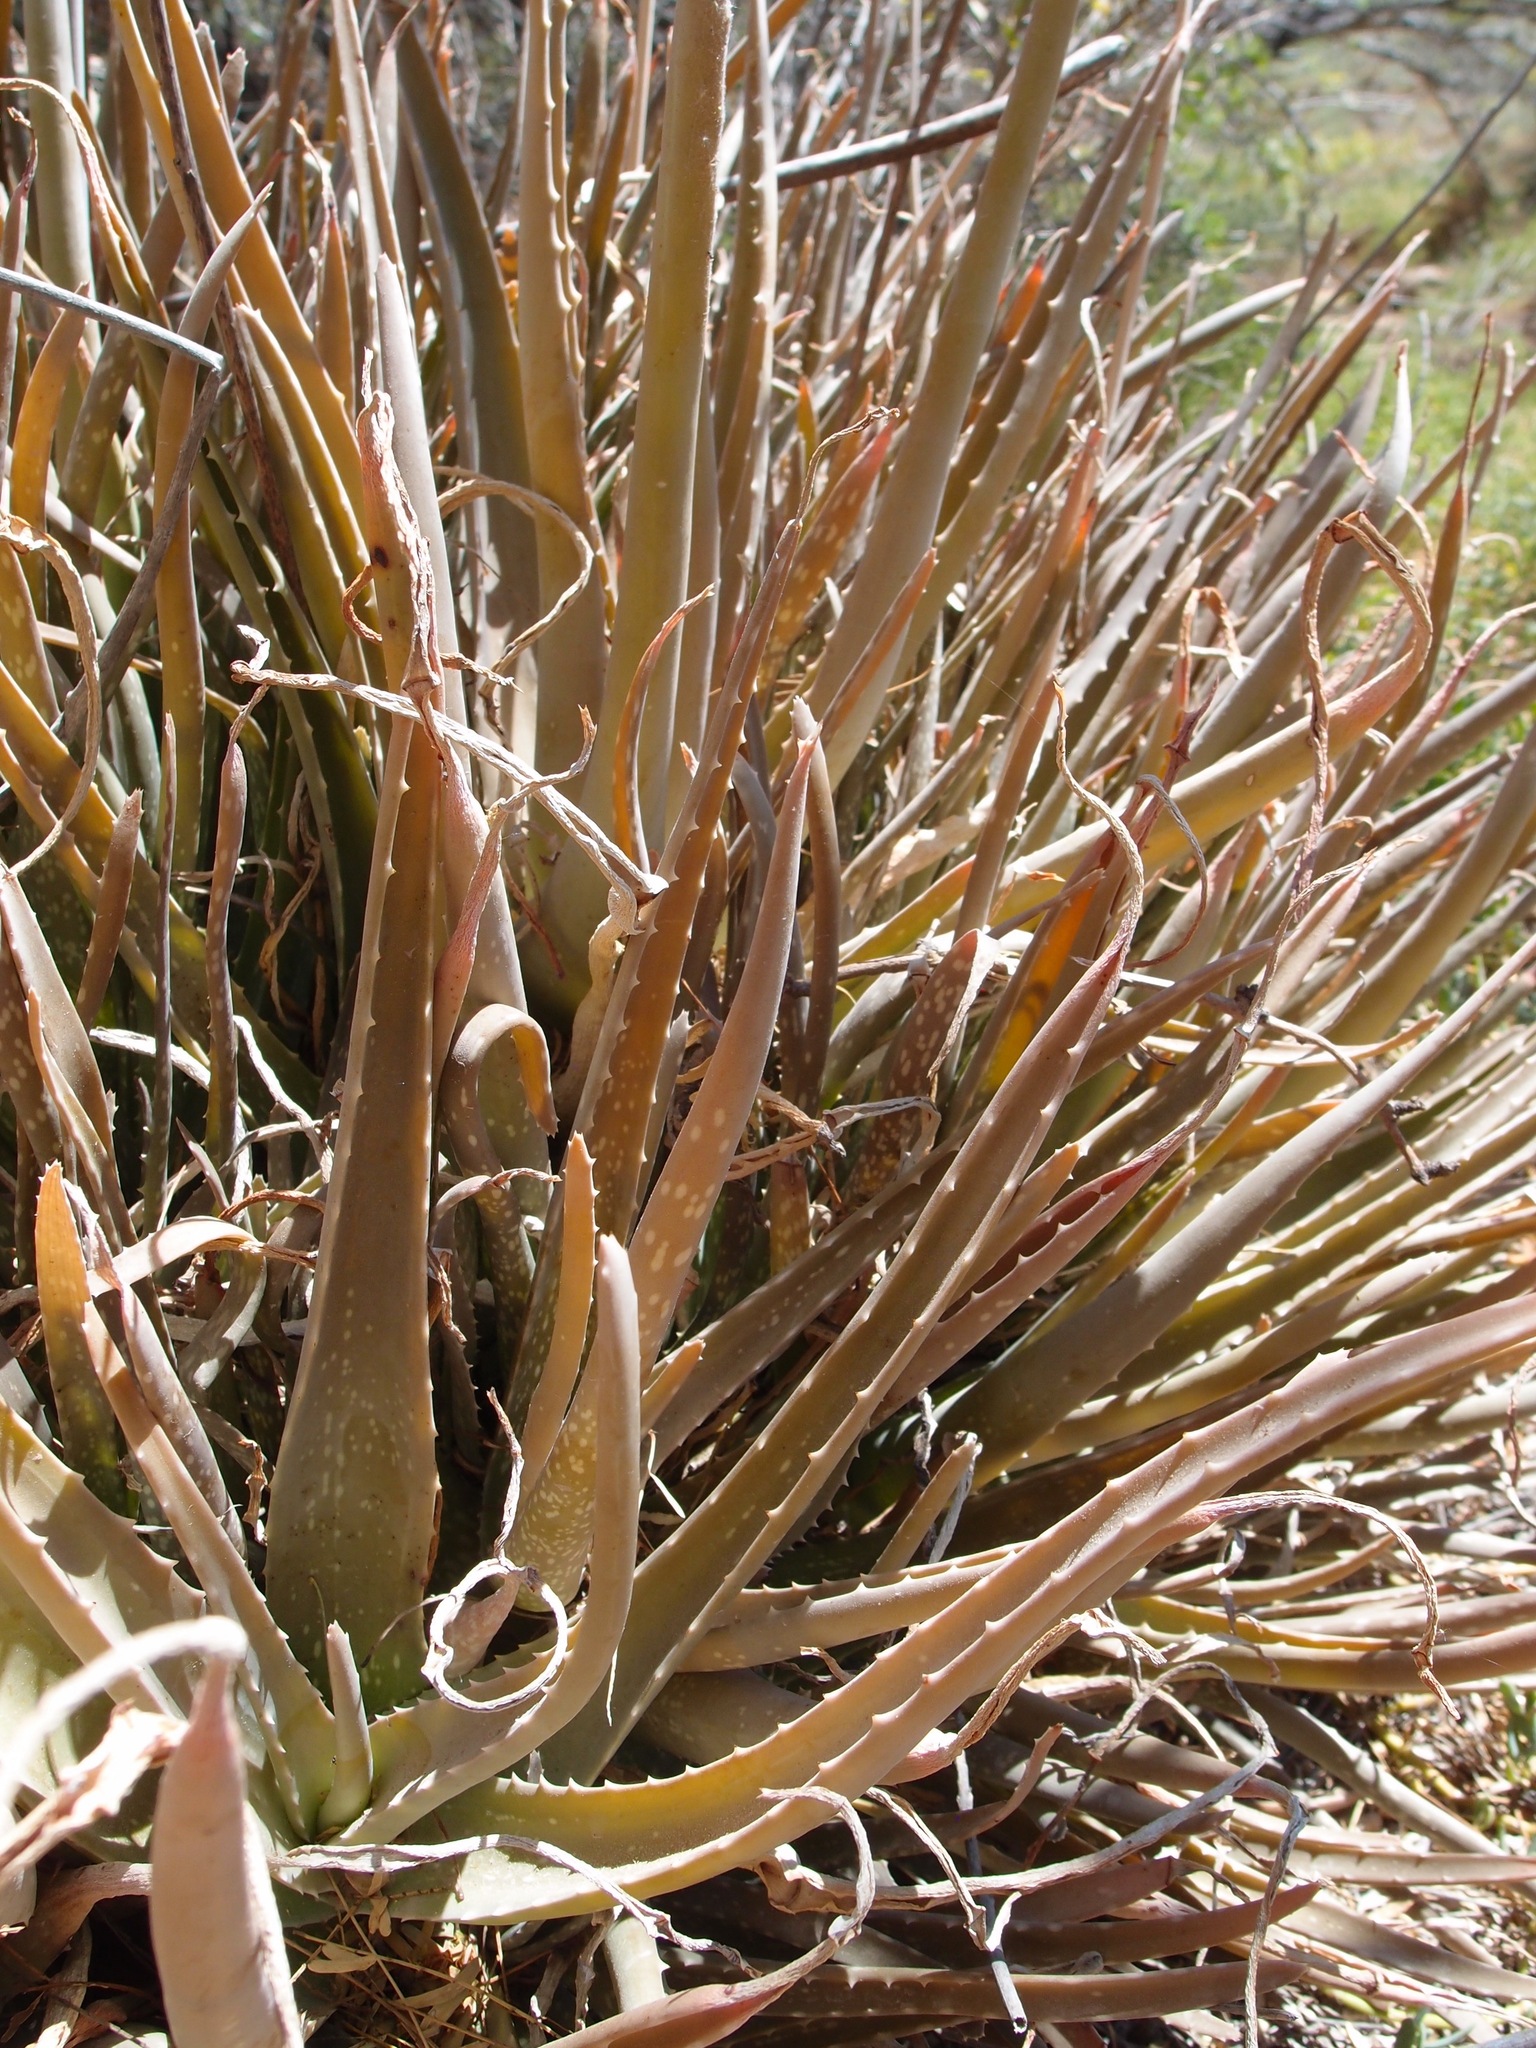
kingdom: Plantae
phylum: Tracheophyta
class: Liliopsida
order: Asparagales
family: Asphodelaceae
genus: Aloe
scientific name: Aloe vera
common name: Barbados aloe
